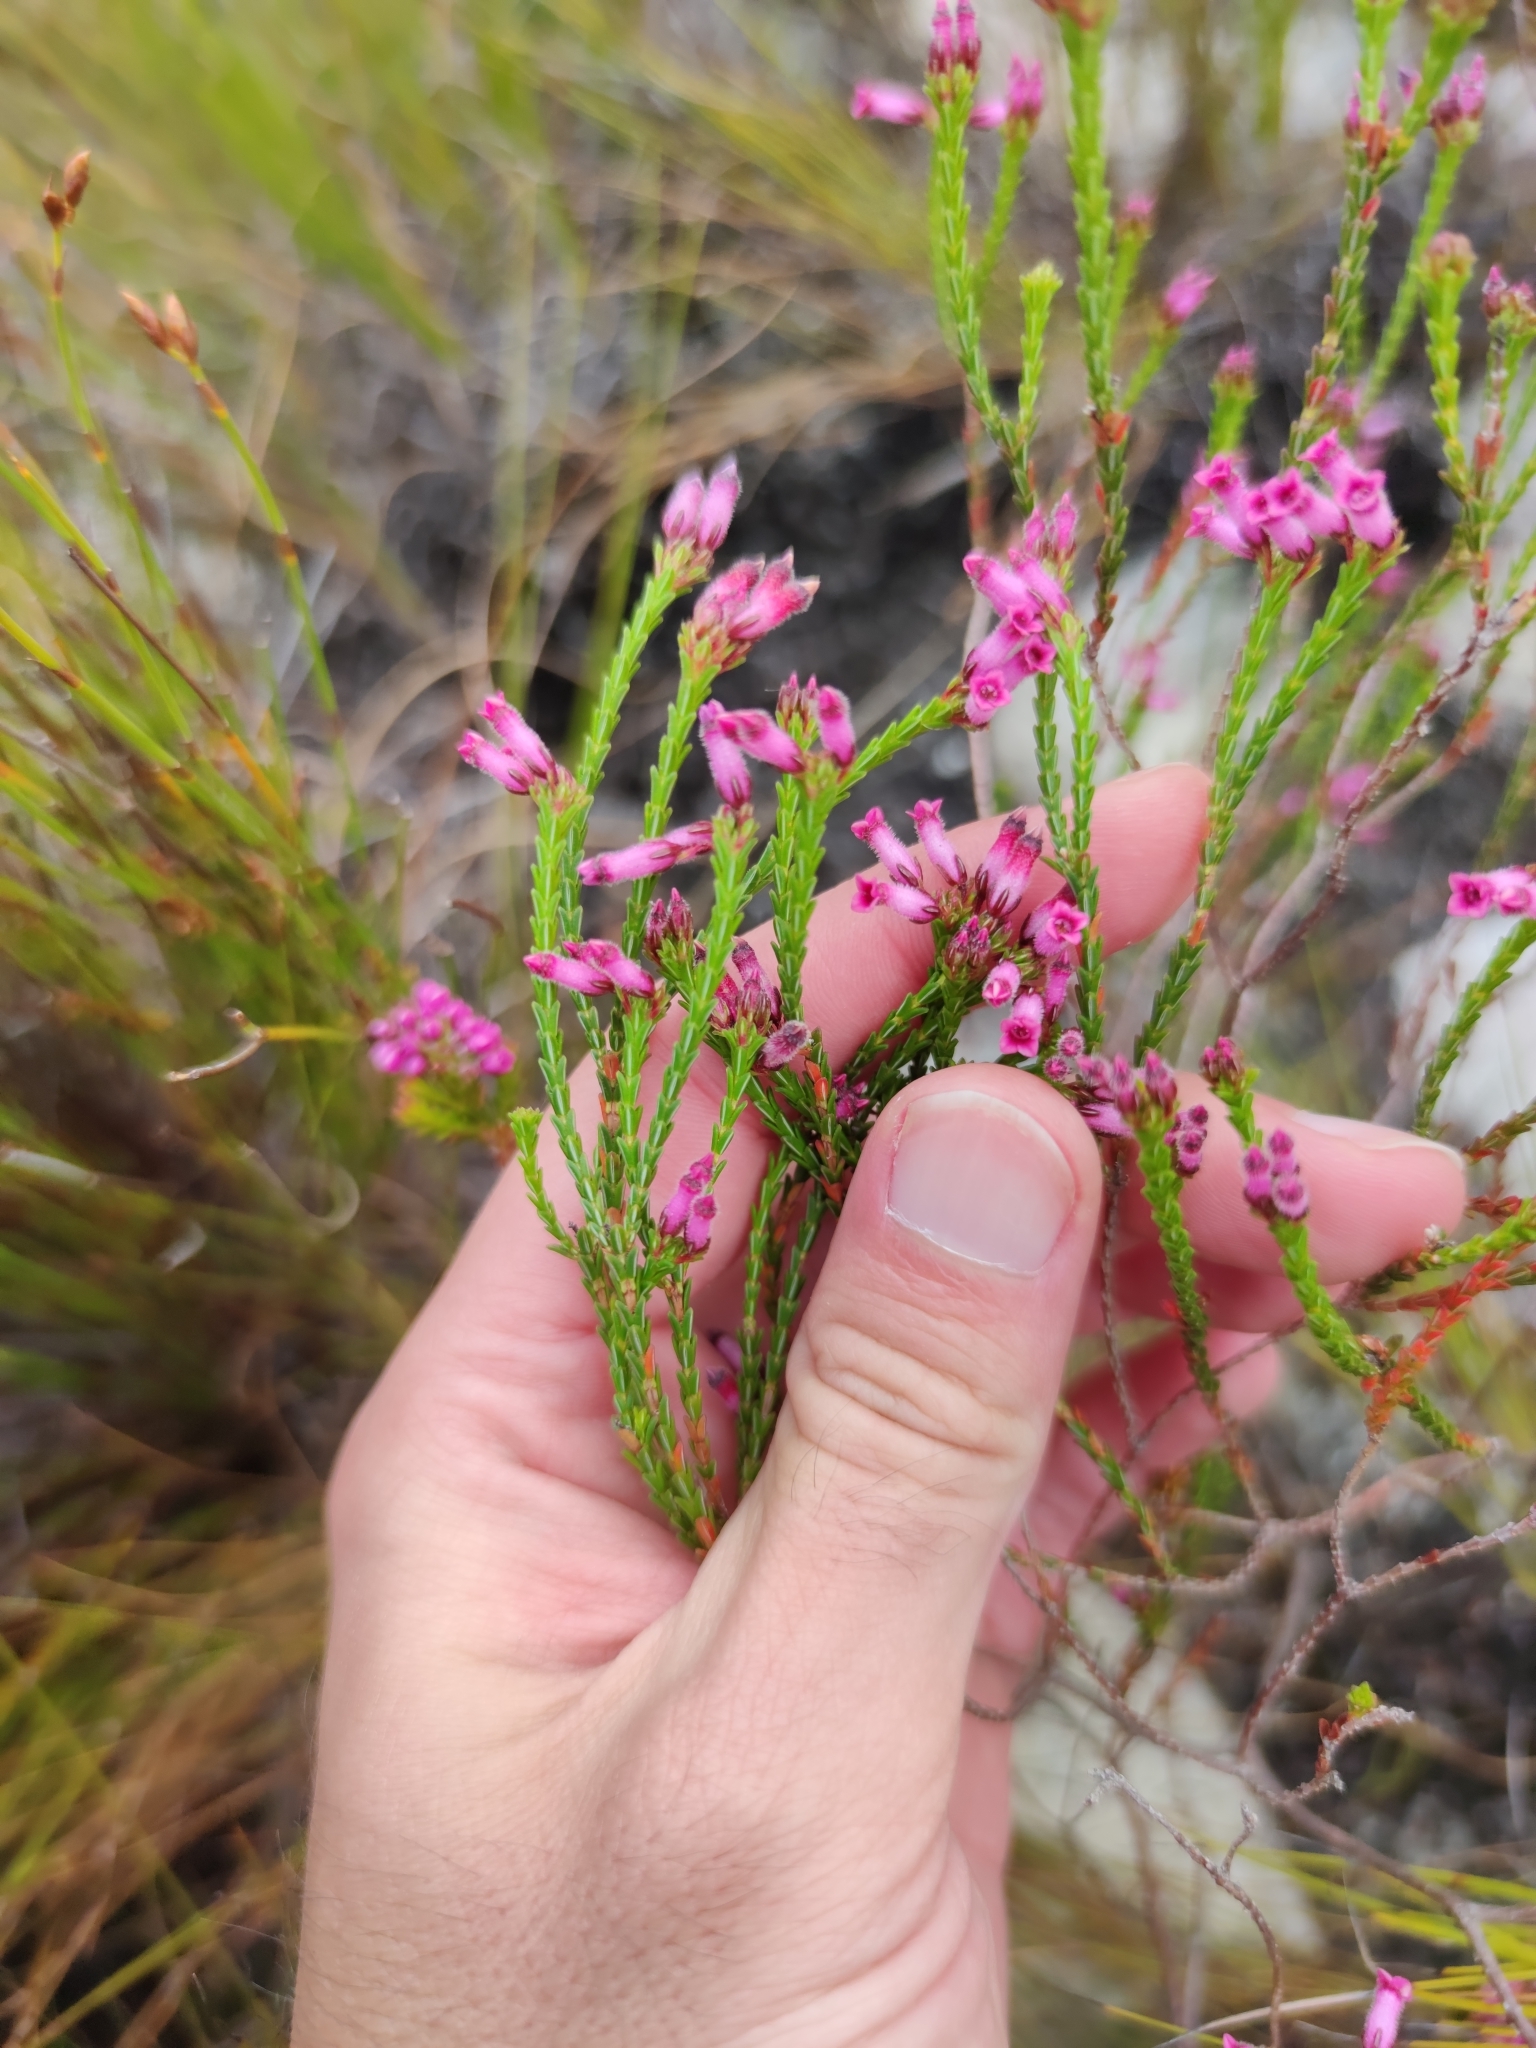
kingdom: Plantae
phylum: Tracheophyta
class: Magnoliopsida
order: Ericales
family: Ericaceae
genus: Erica
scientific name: Erica cristata
